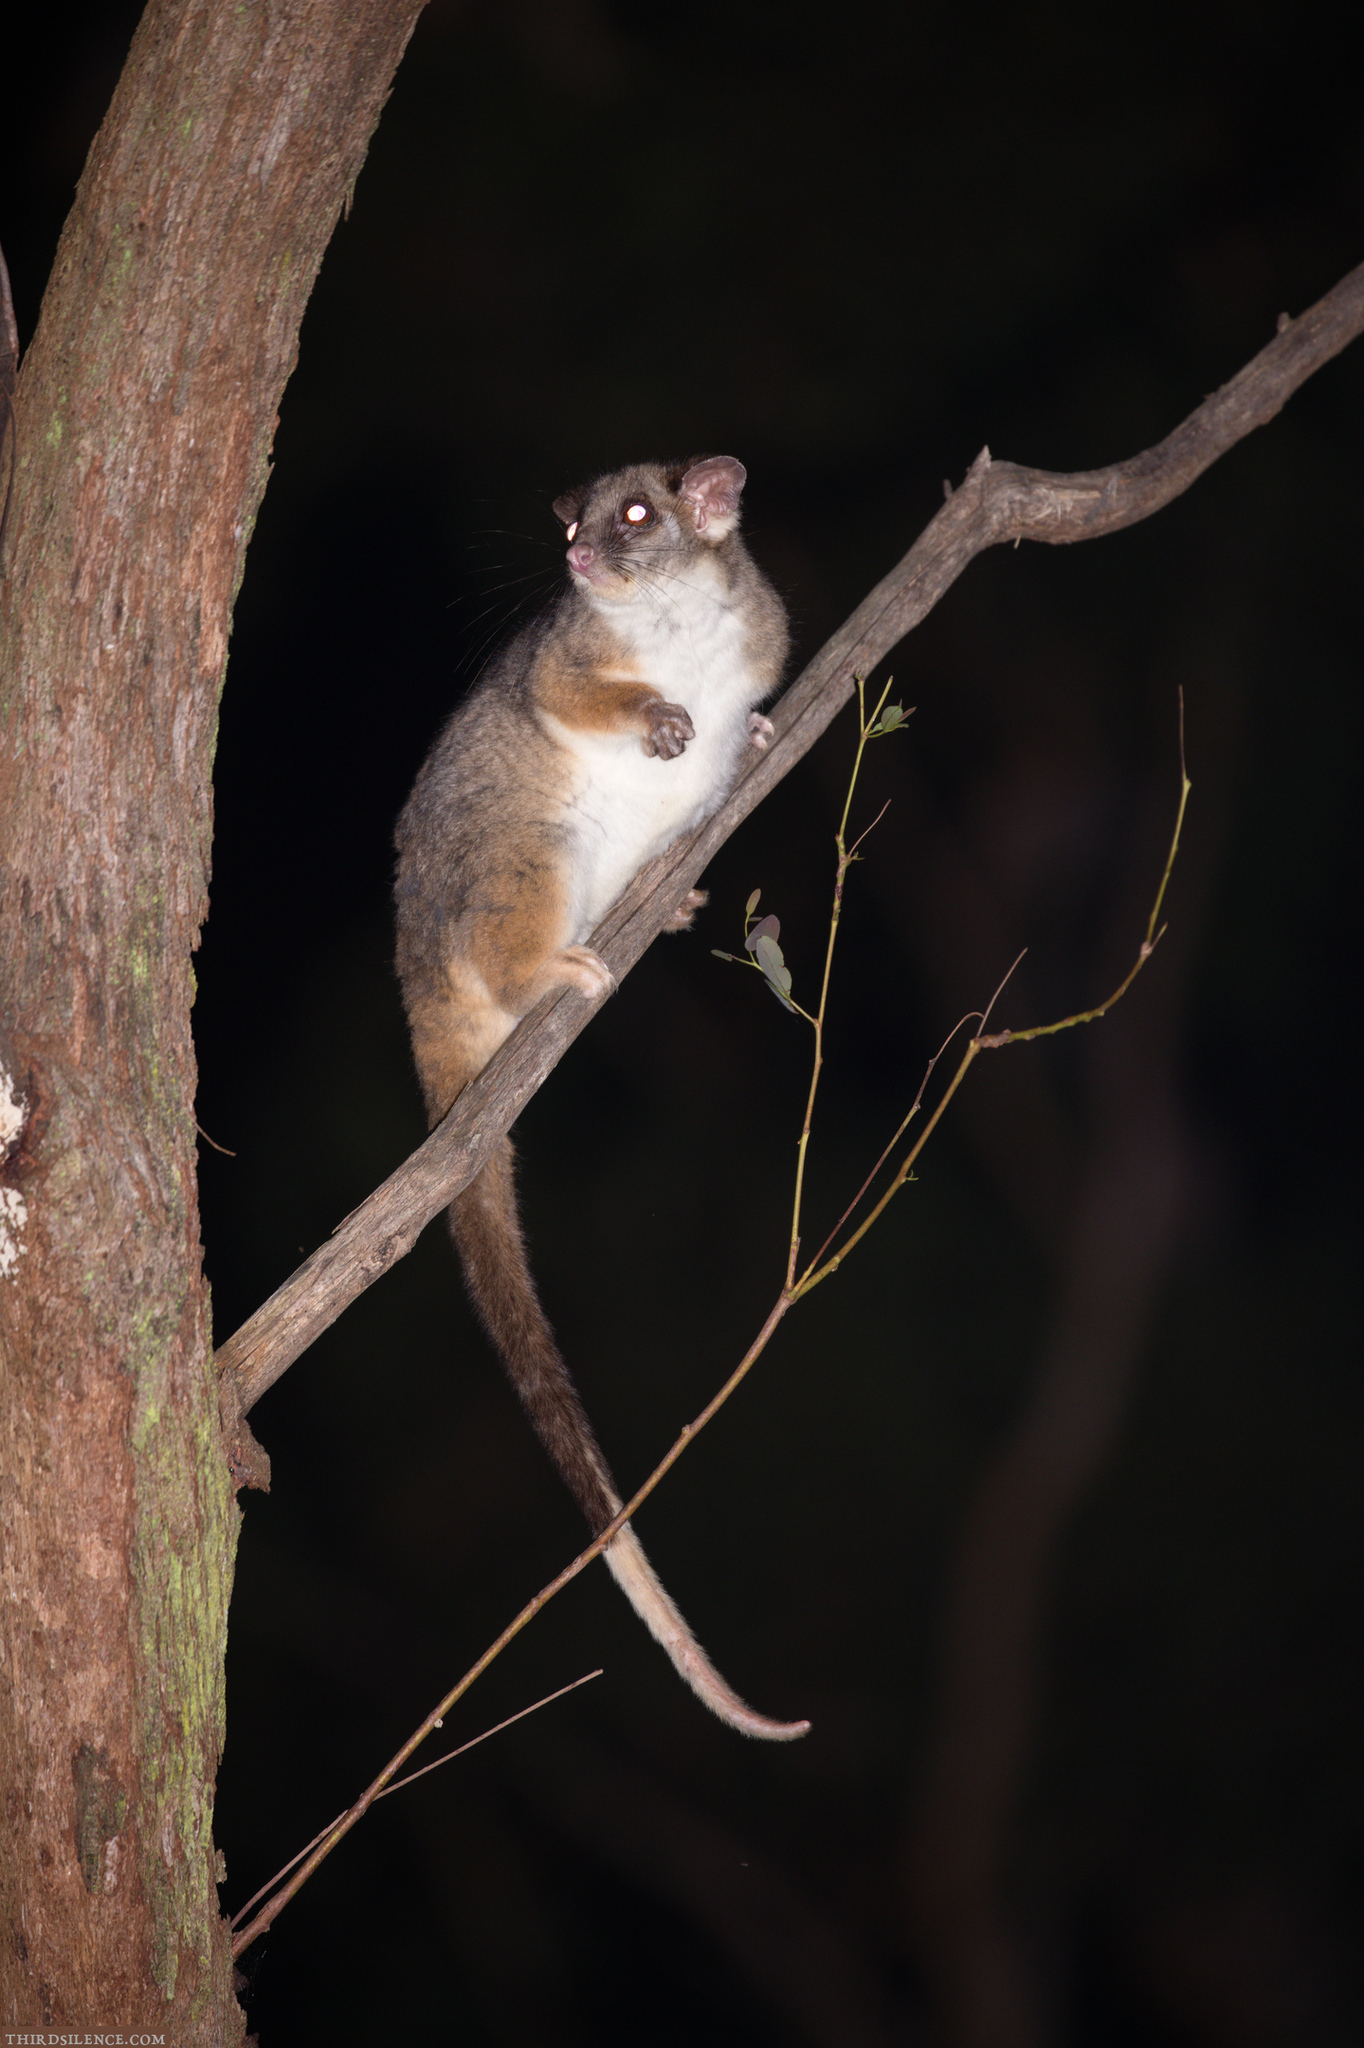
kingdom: Animalia
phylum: Chordata
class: Mammalia
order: Diprotodontia
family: Pseudocheiridae
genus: Pseudocheirus
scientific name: Pseudocheirus peregrinus
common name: Common ringtail possum
